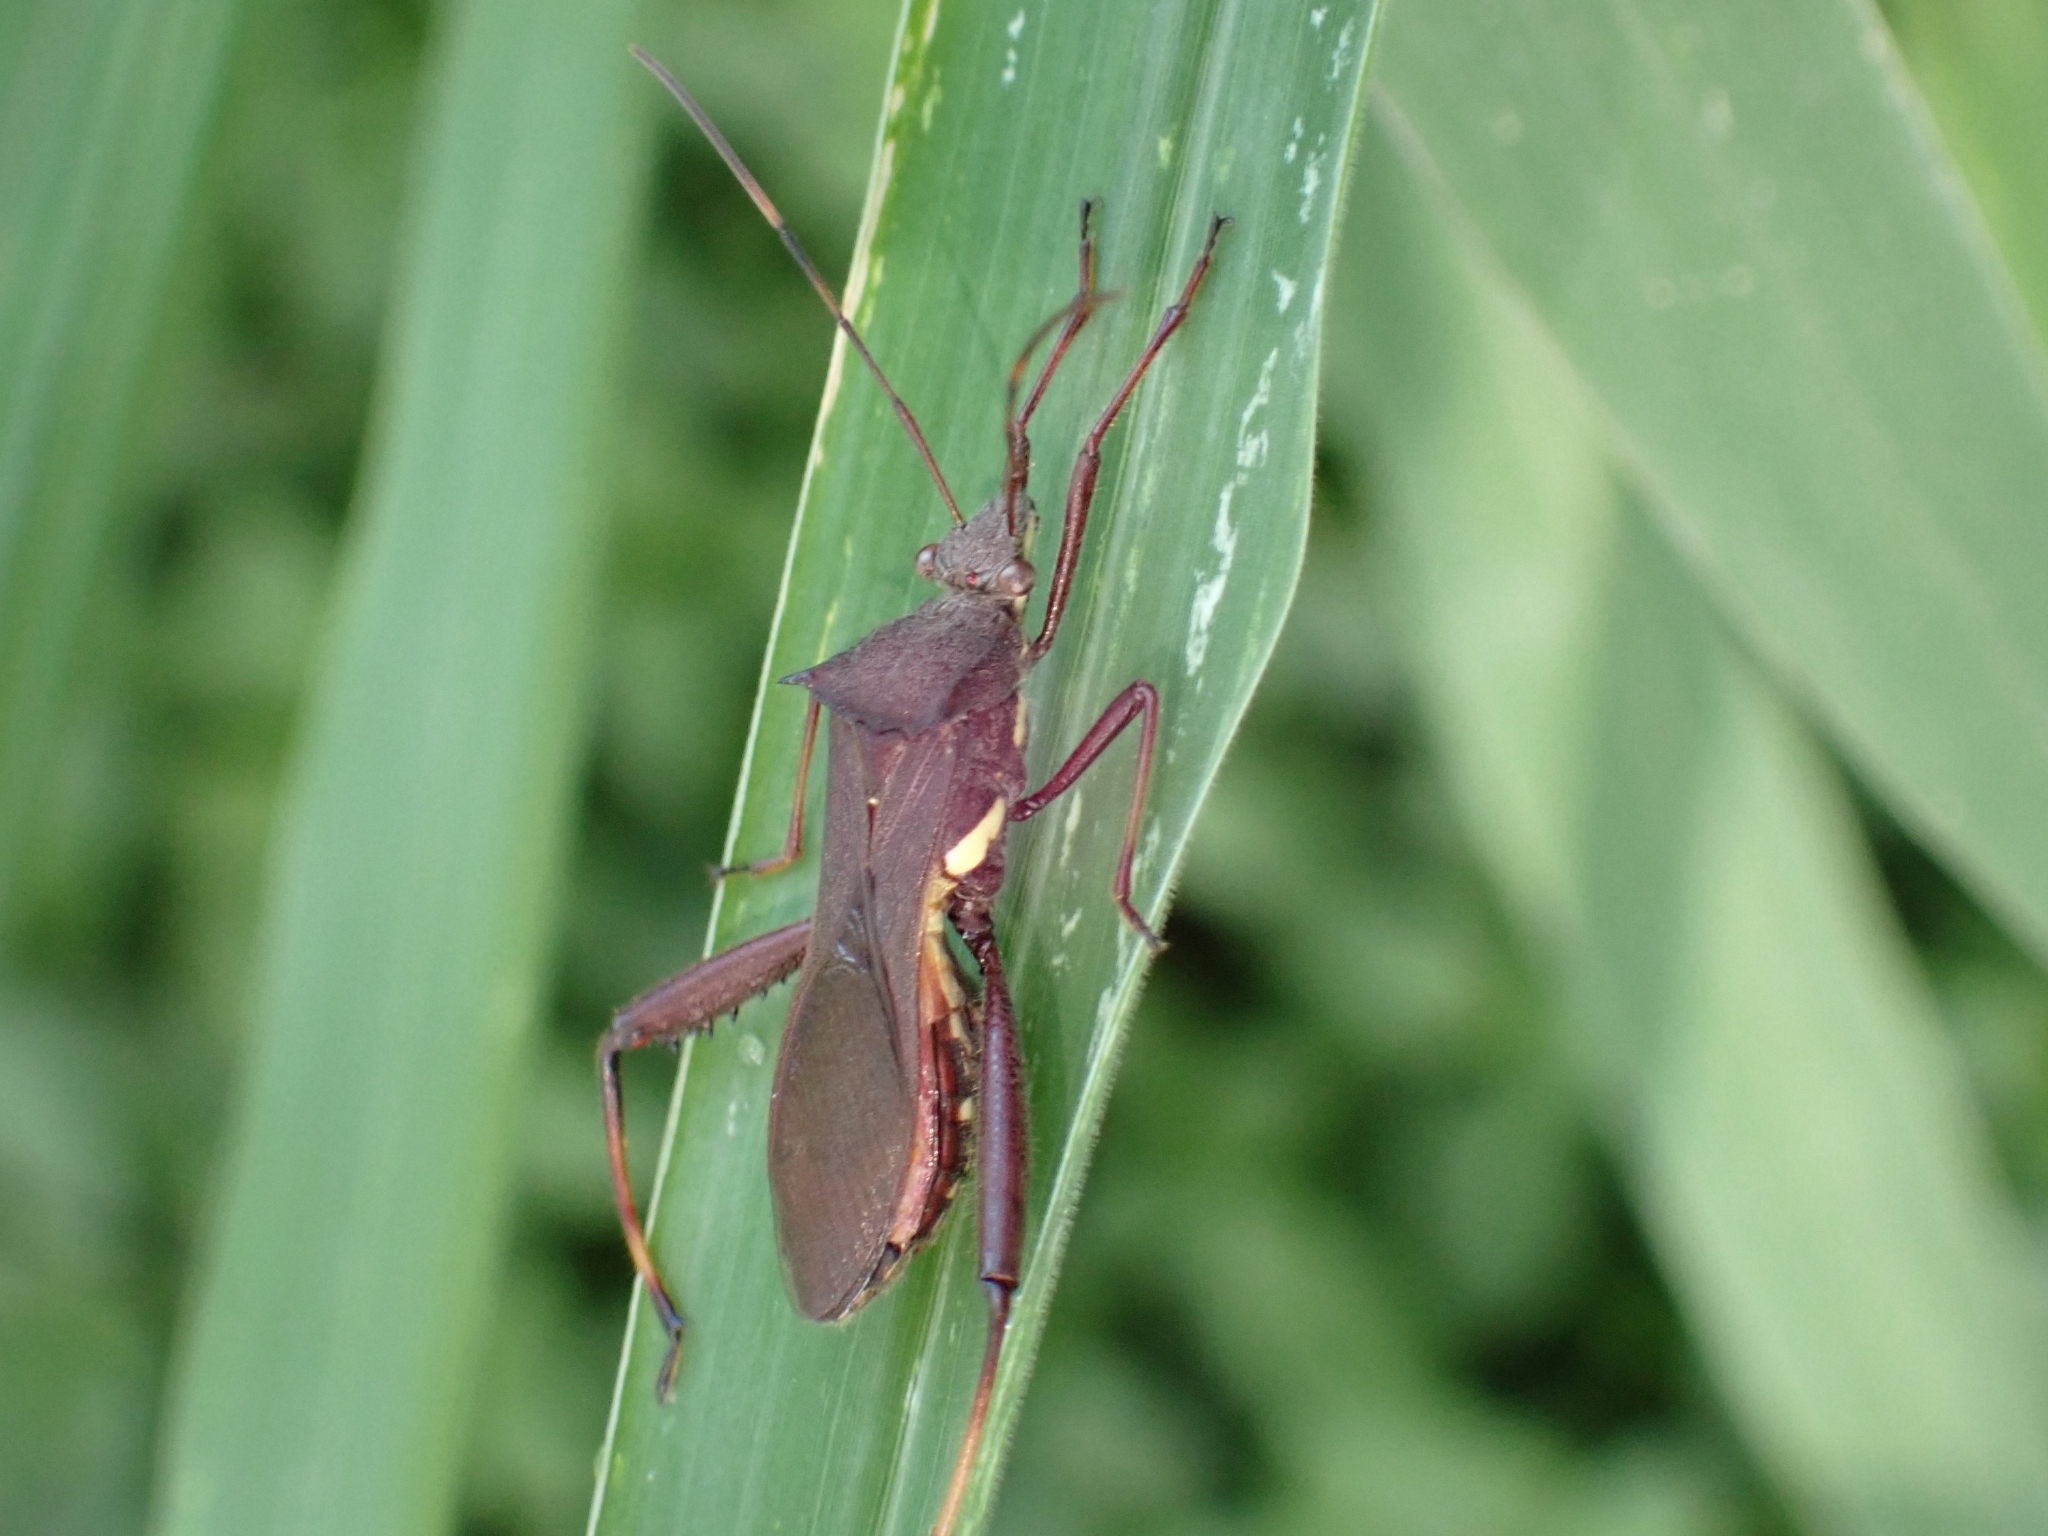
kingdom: Animalia
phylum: Arthropoda
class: Insecta
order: Hemiptera
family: Alydidae
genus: Riptortus
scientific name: Riptortus serripes
